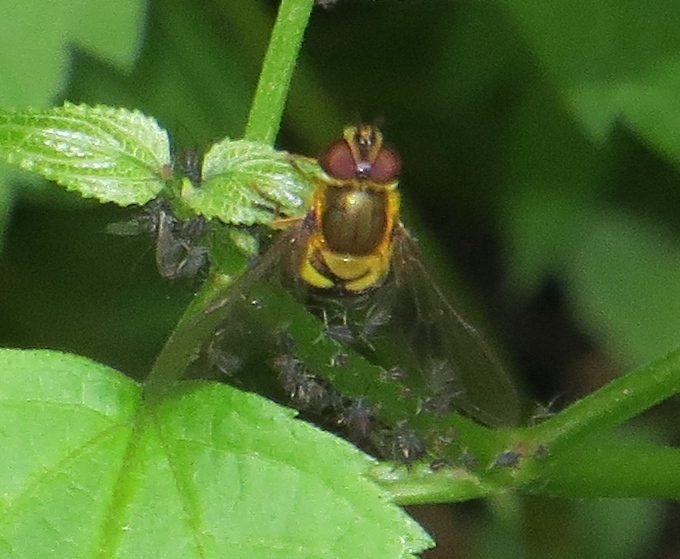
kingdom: Animalia
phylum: Arthropoda
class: Insecta
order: Diptera
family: Syrphidae
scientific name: Syrphidae
